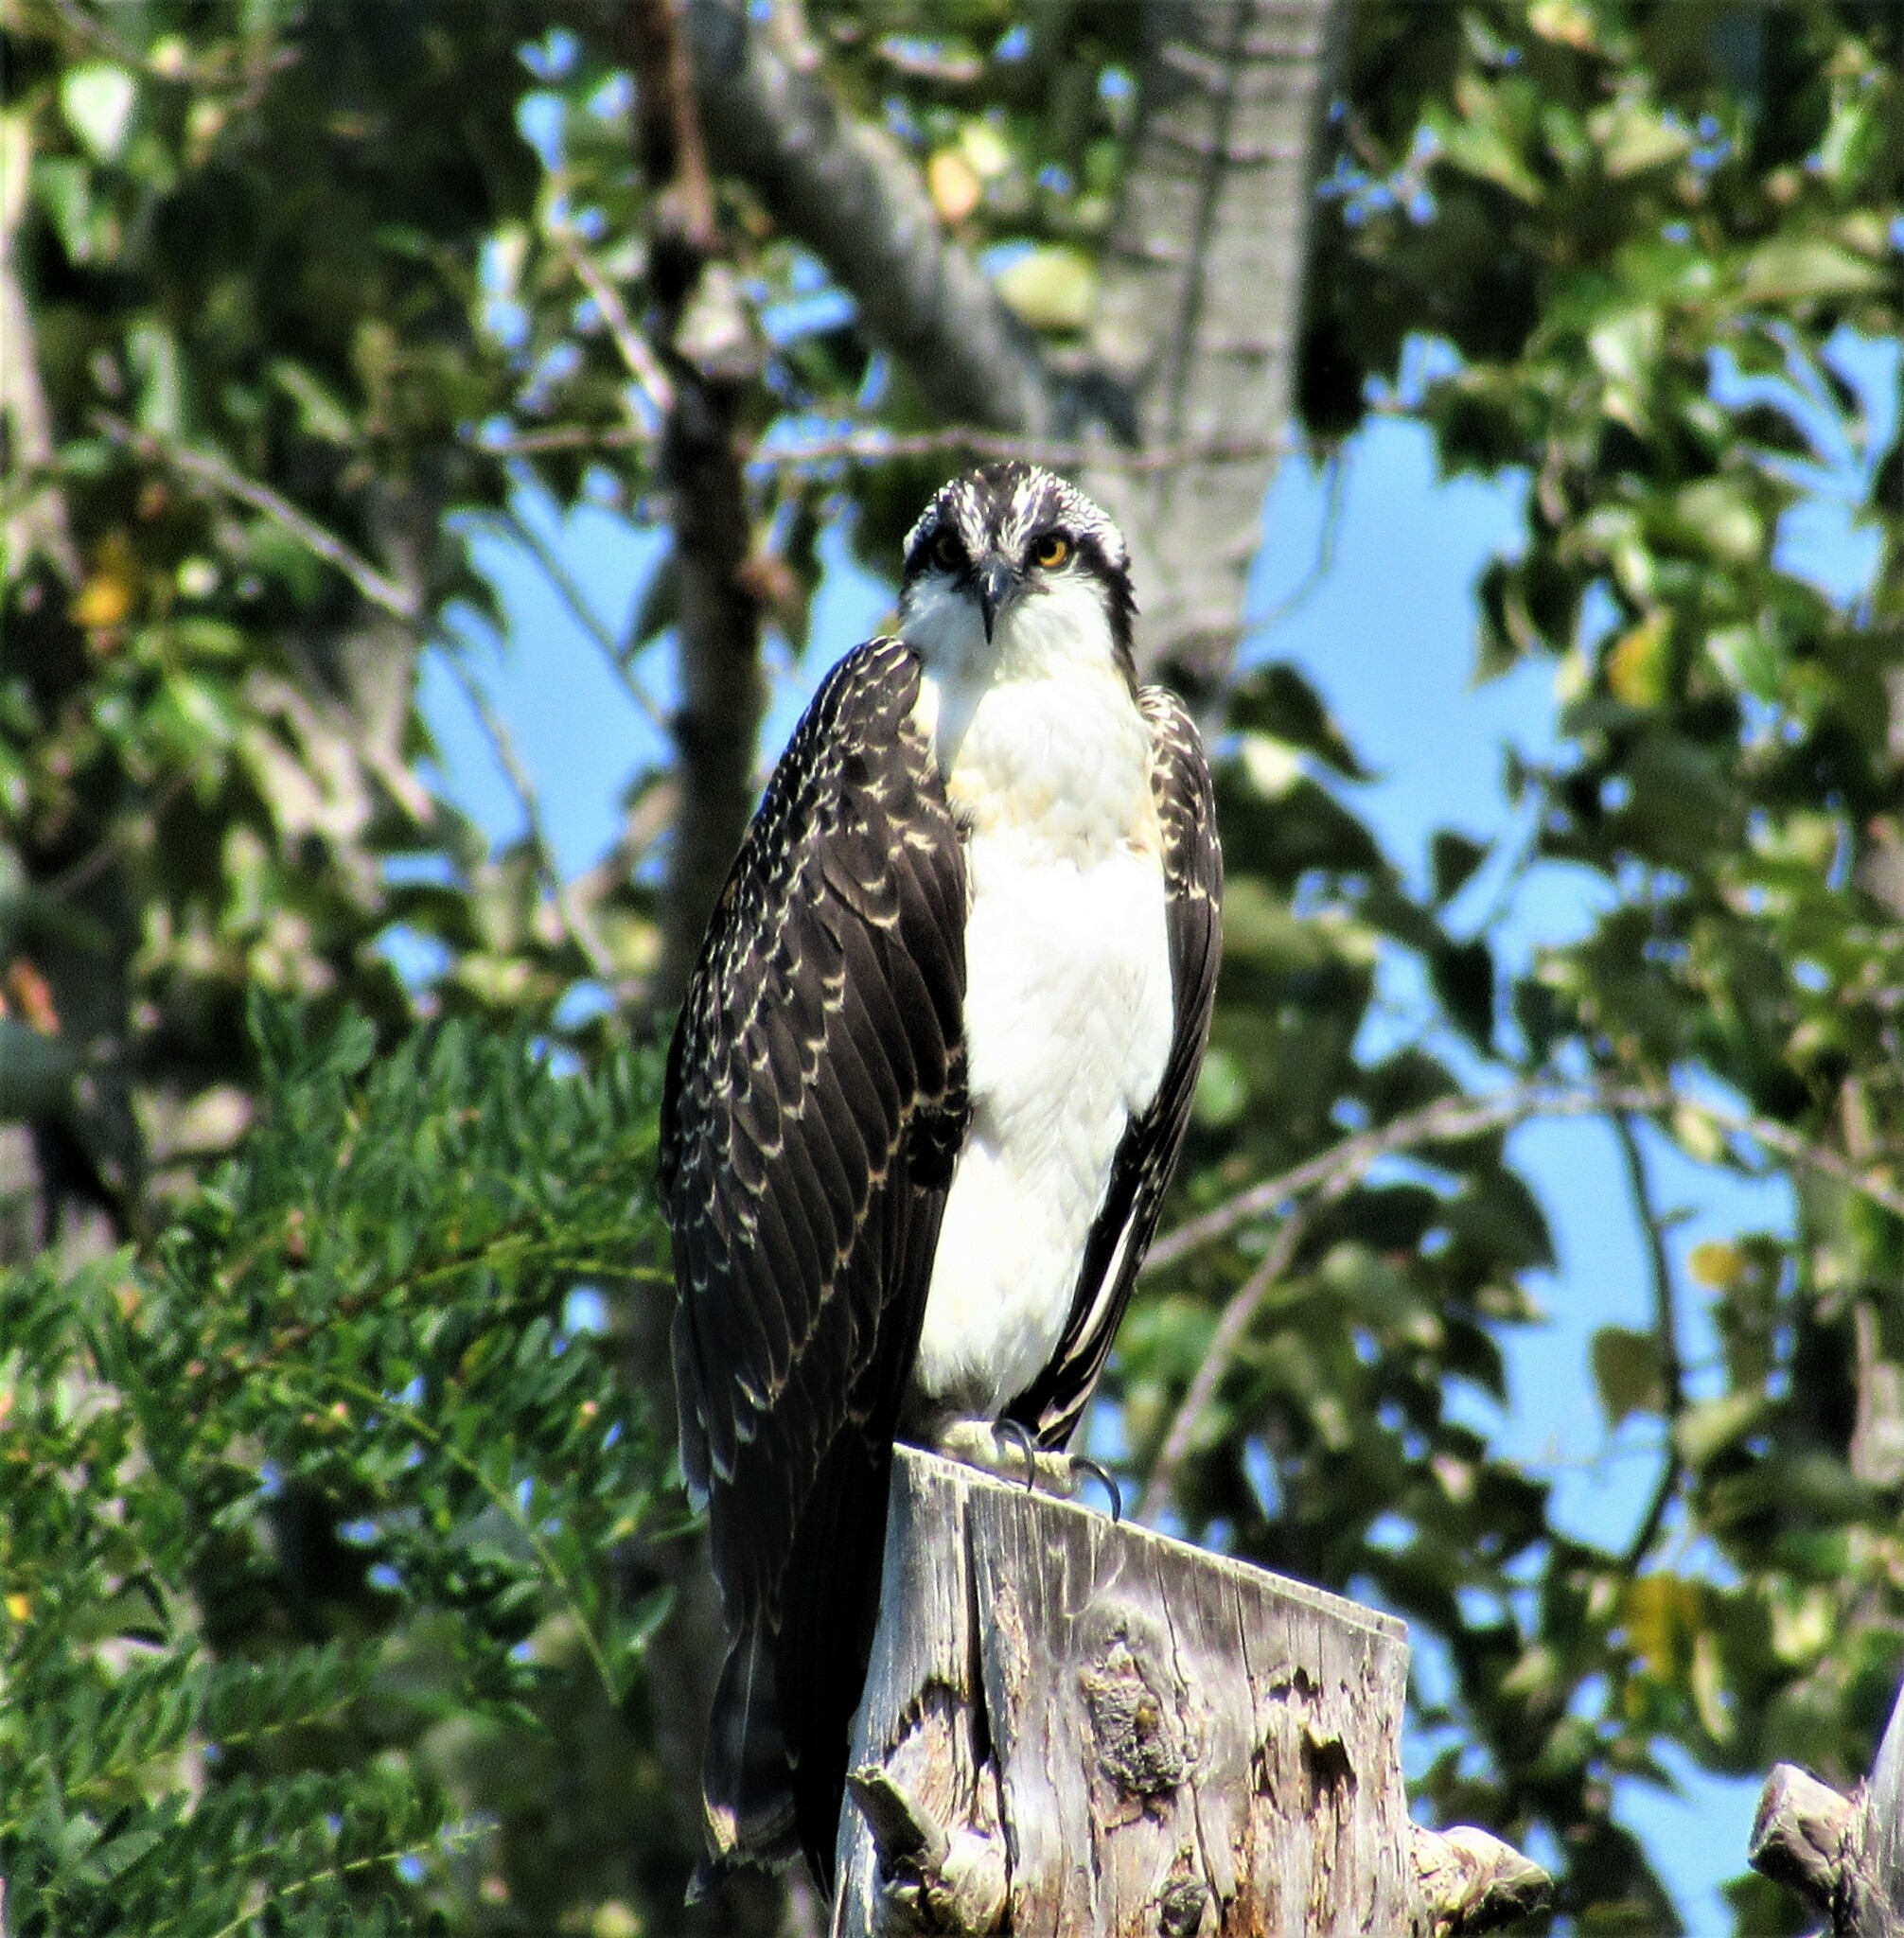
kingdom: Animalia
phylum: Chordata
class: Aves
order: Accipitriformes
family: Pandionidae
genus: Pandion
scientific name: Pandion haliaetus
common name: Osprey
